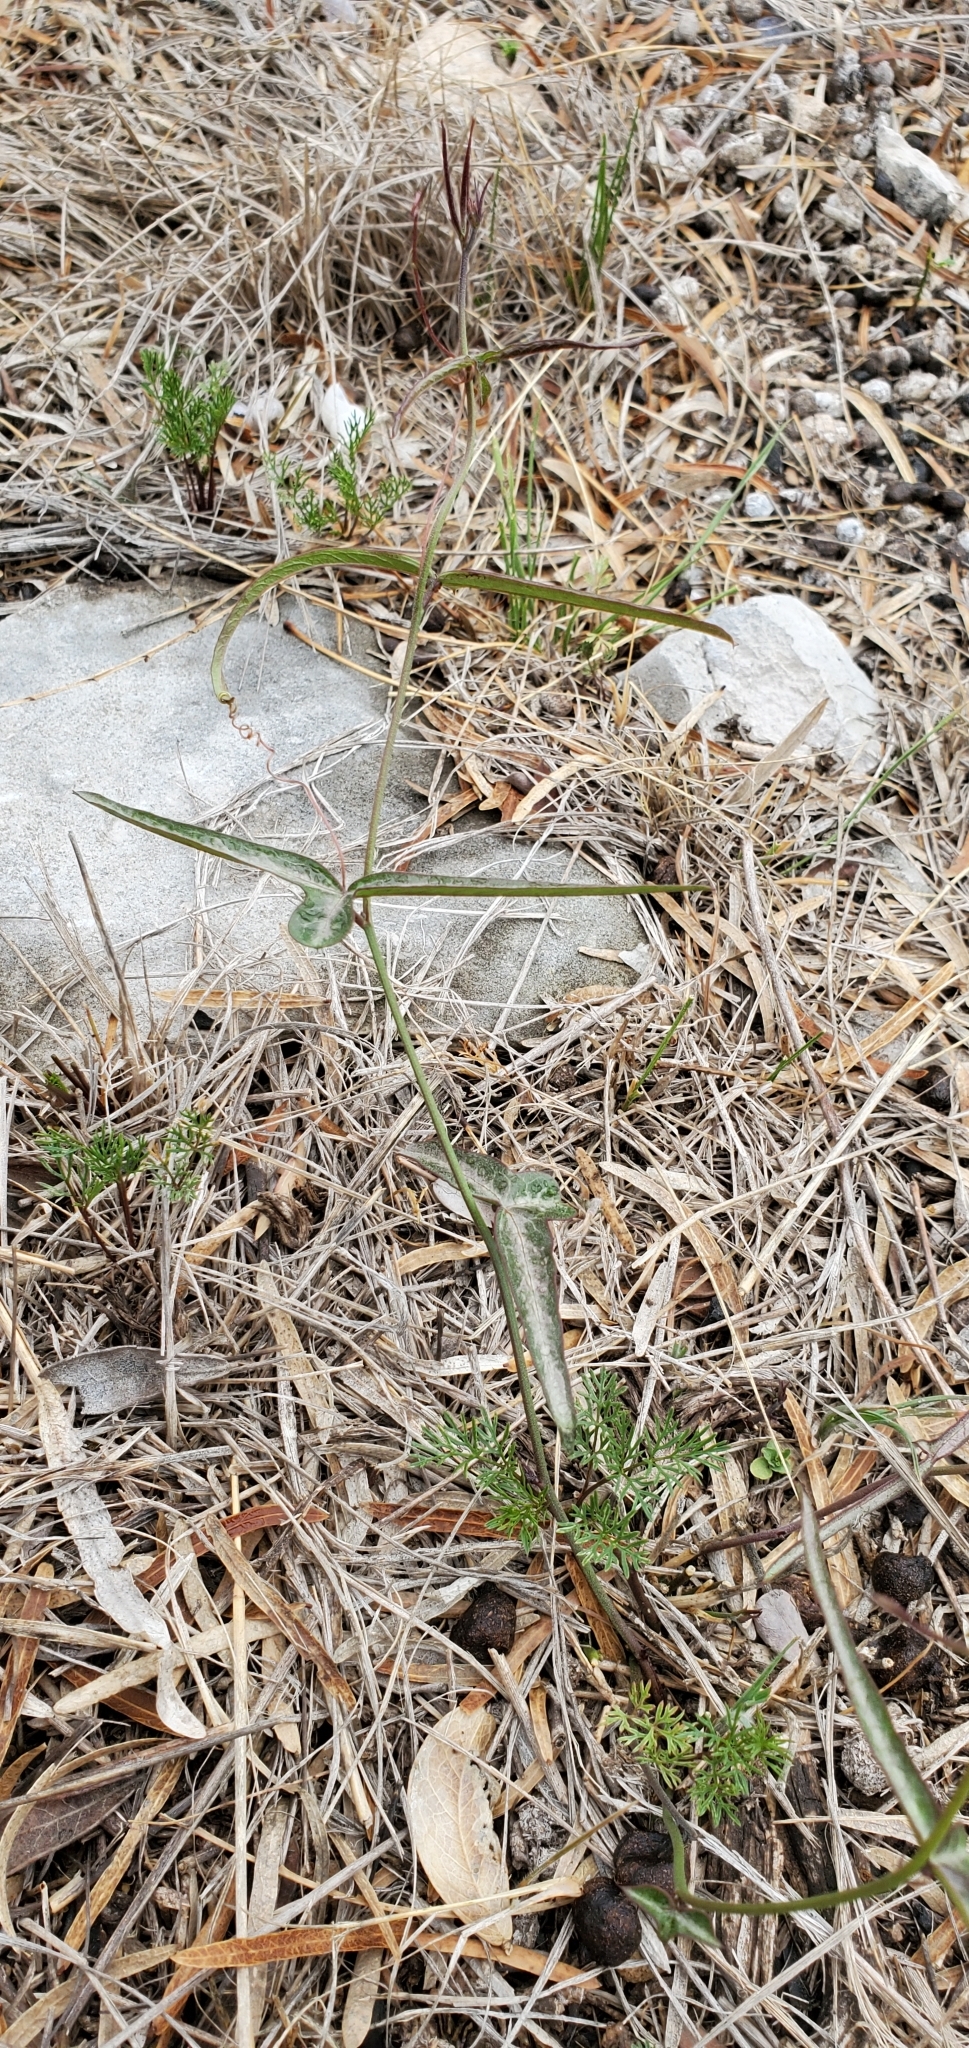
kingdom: Plantae
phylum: Tracheophyta
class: Magnoliopsida
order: Malpighiales
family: Passifloraceae
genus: Passiflora
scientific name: Passiflora tenuiloba
